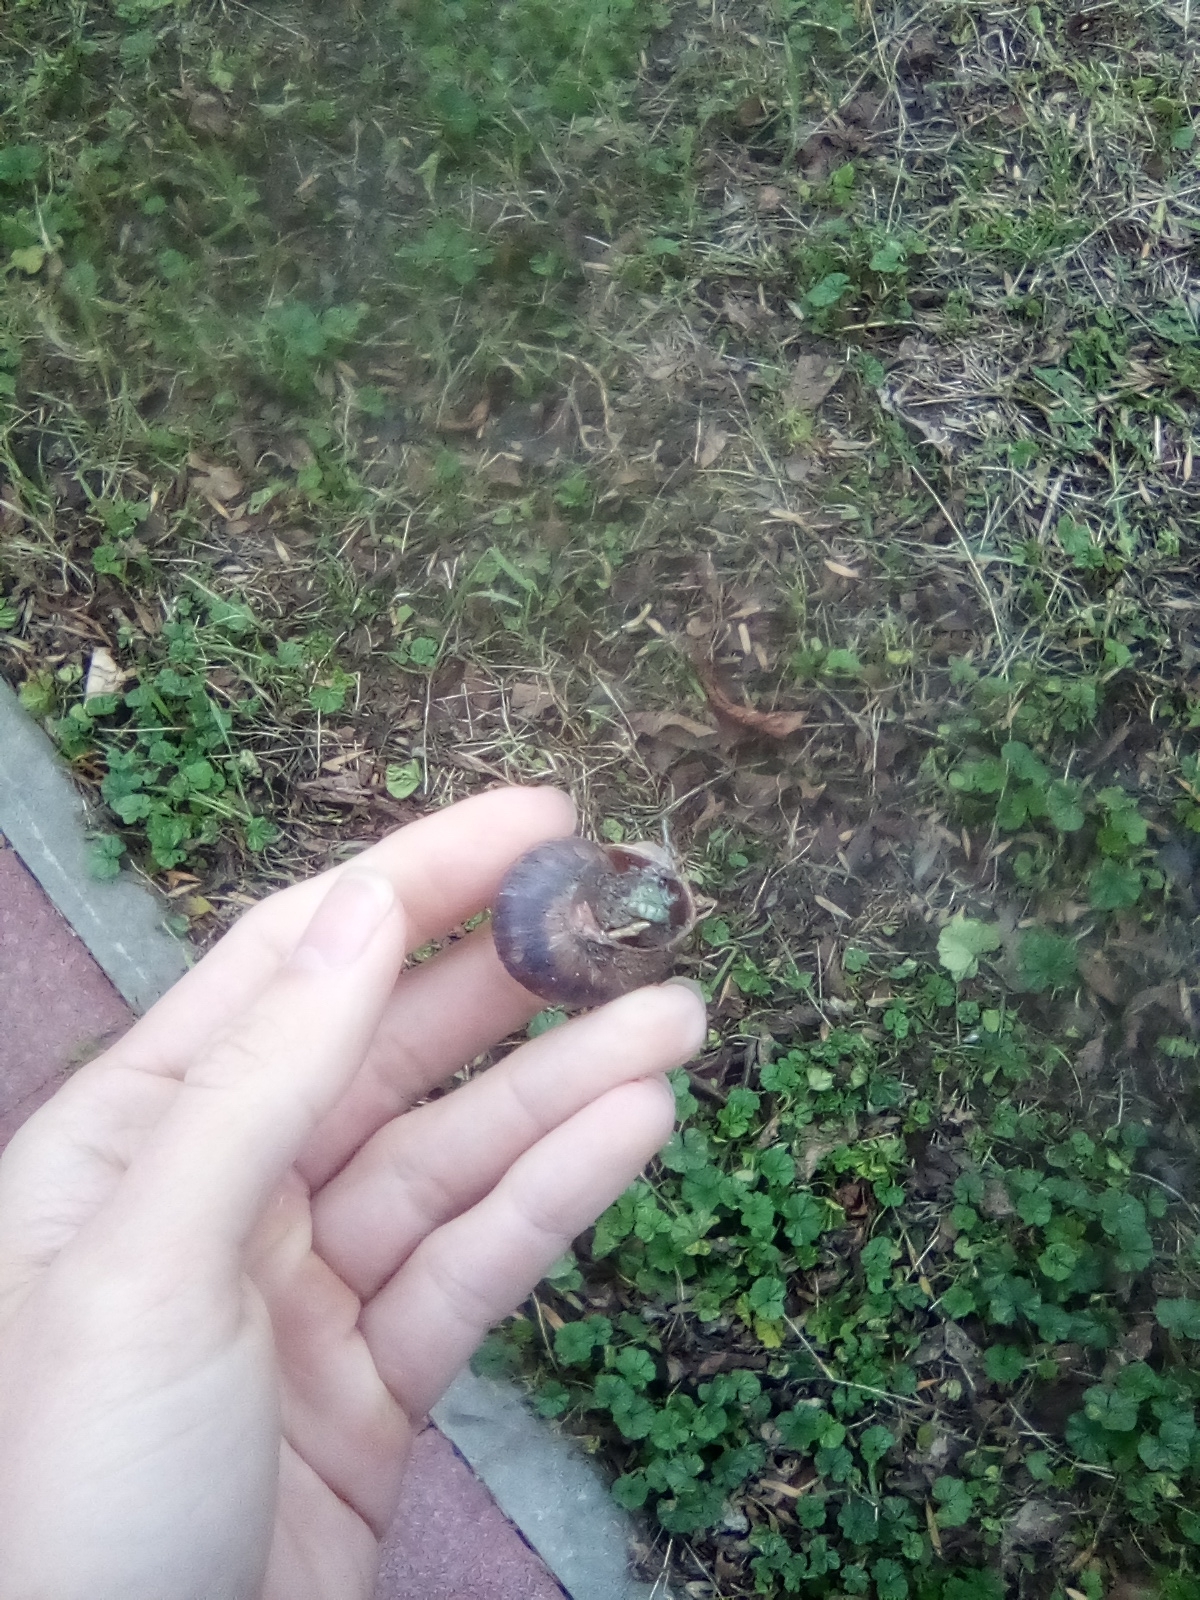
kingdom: Animalia
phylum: Mollusca
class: Gastropoda
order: Stylommatophora
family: Helicidae
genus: Helix
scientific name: Helix lucorum
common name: Turkish snail
